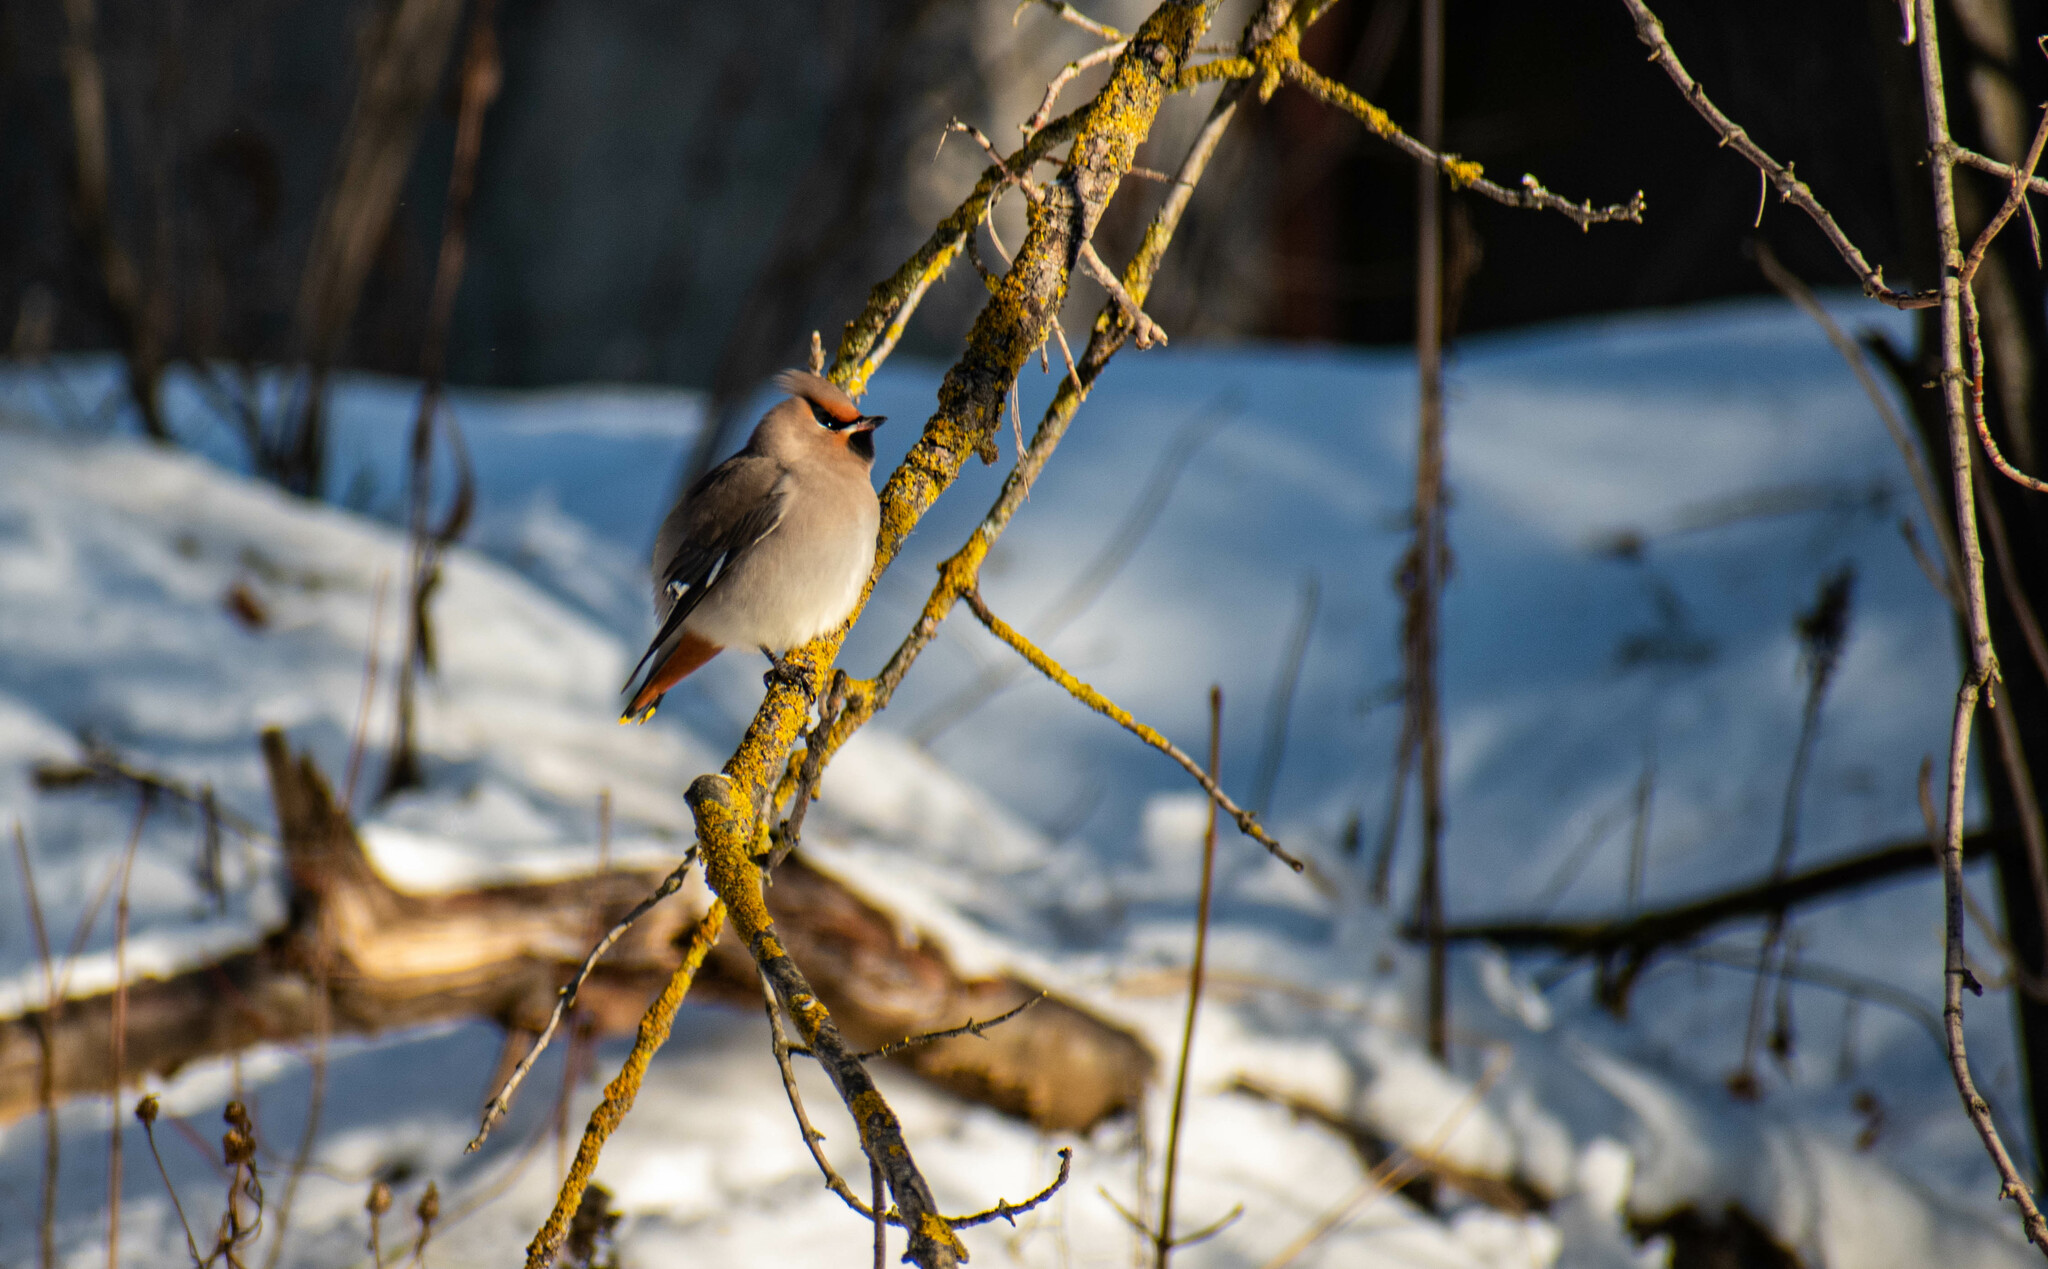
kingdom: Animalia
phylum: Chordata
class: Aves
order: Passeriformes
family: Bombycillidae
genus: Bombycilla
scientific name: Bombycilla garrulus
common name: Bohemian waxwing
